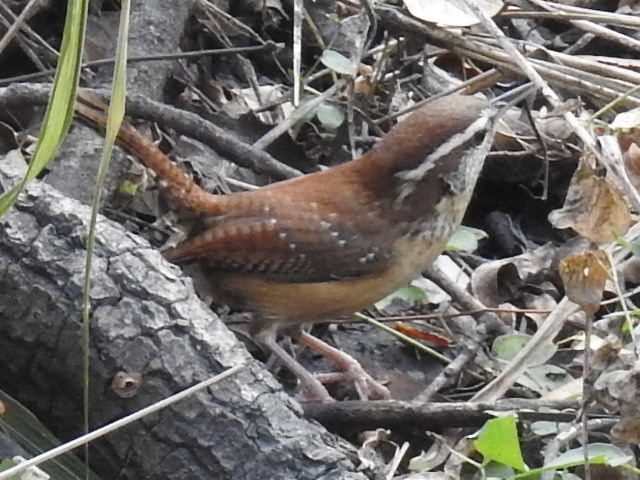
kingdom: Animalia
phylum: Chordata
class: Aves
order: Passeriformes
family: Troglodytidae
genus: Thryothorus
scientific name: Thryothorus ludovicianus
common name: Carolina wren
